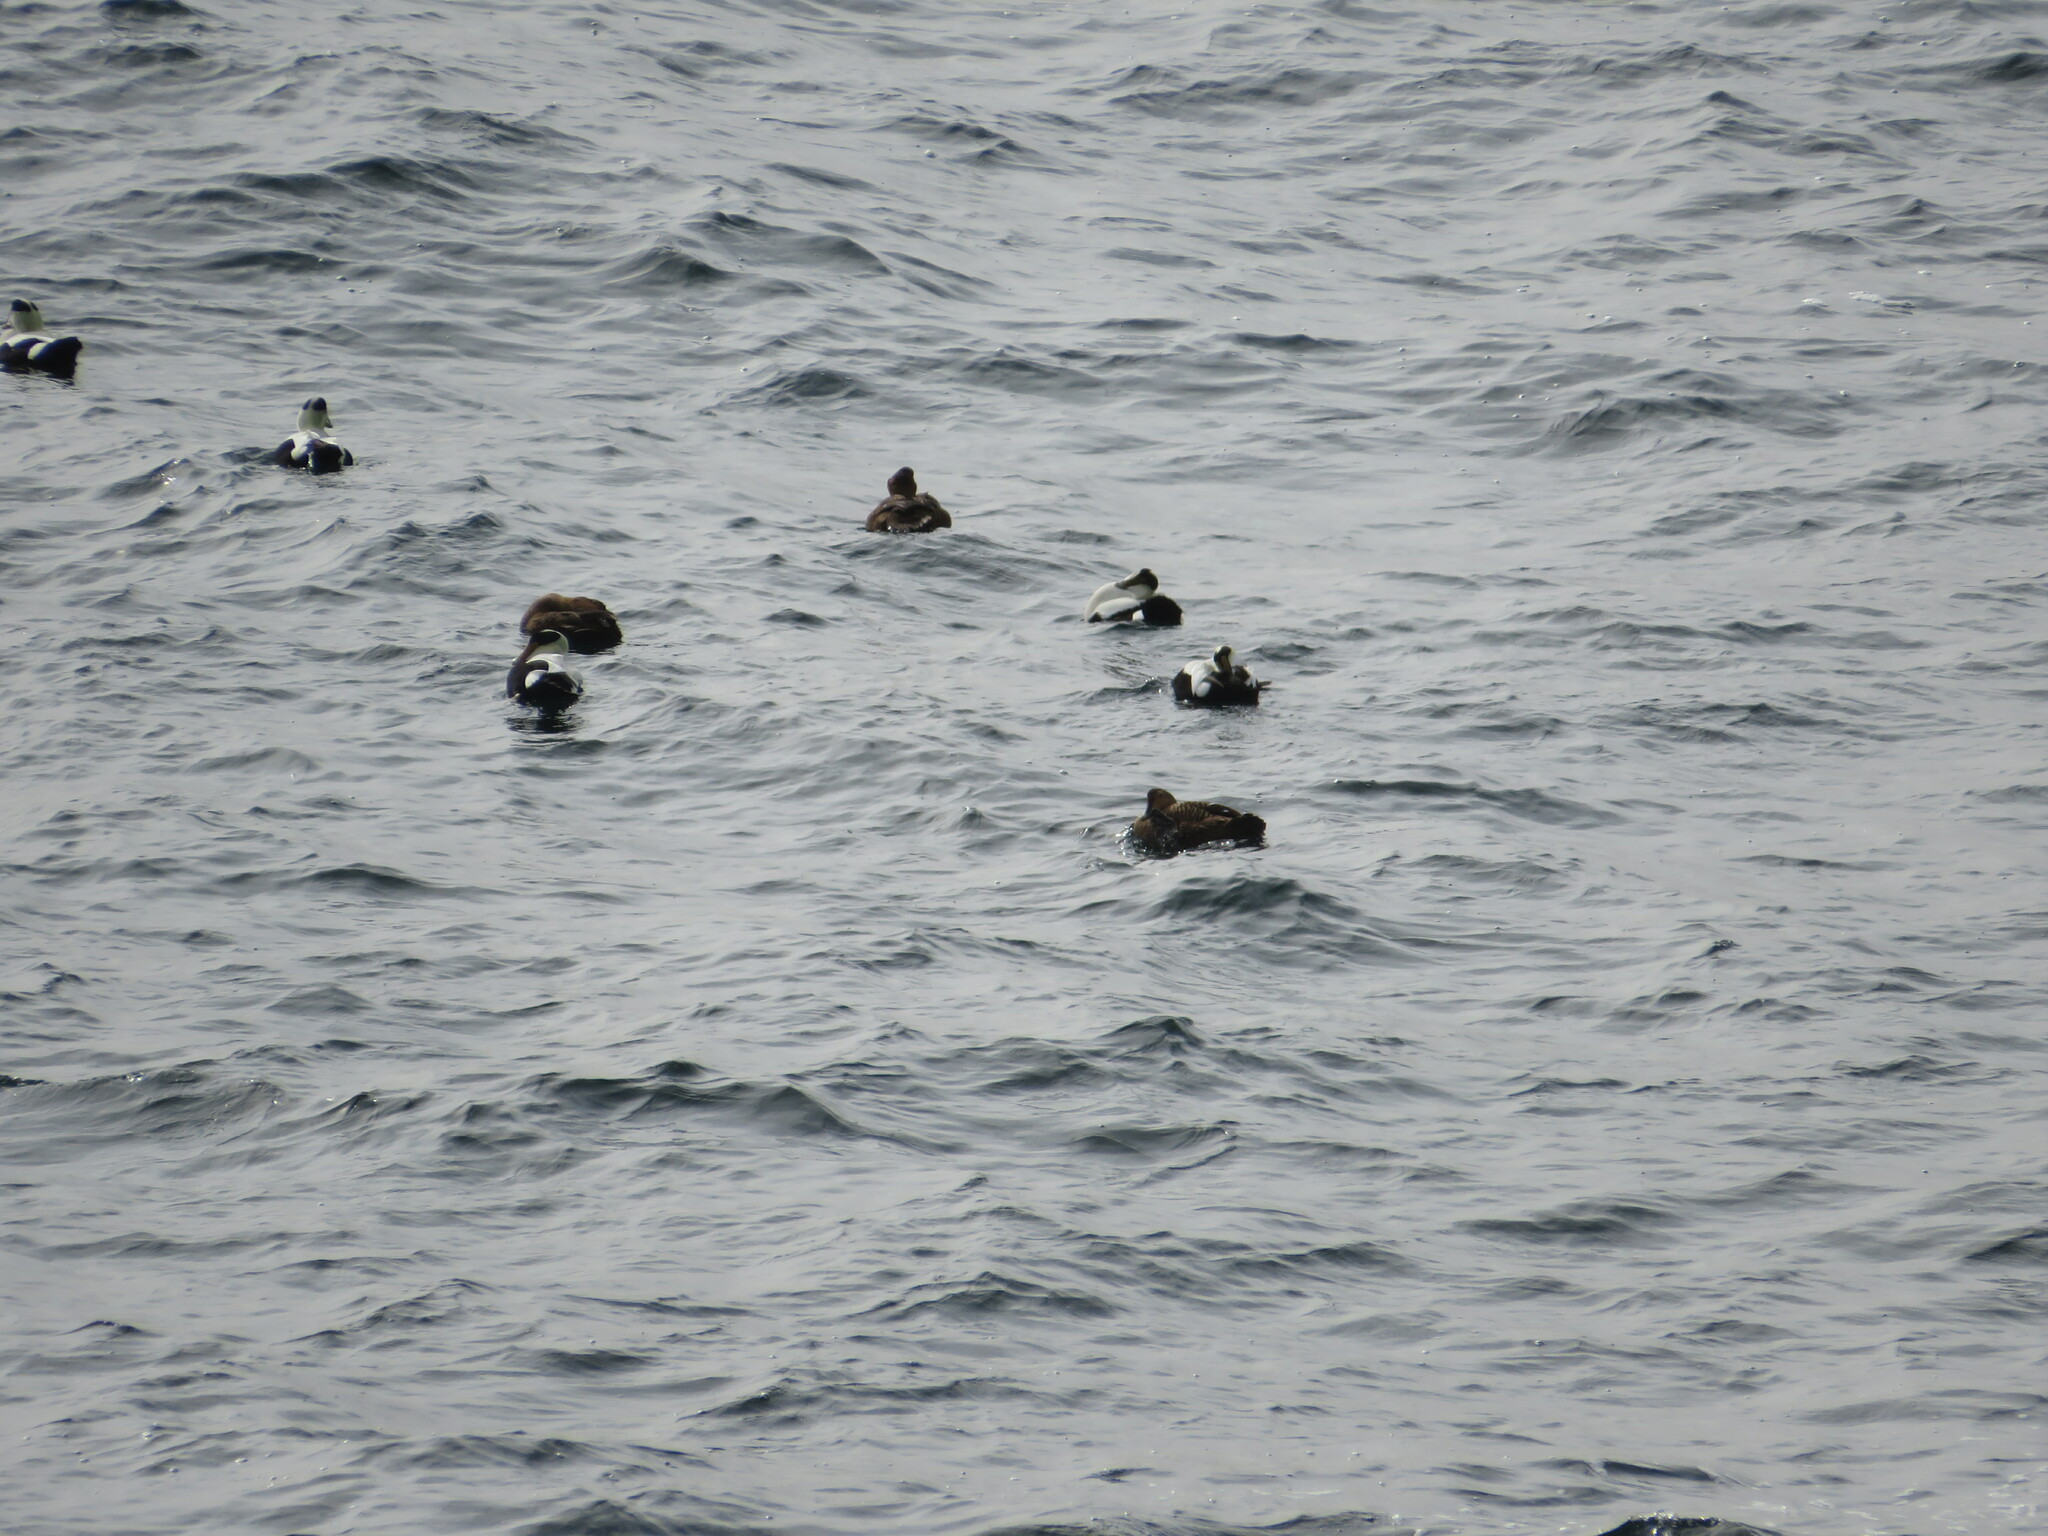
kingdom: Animalia
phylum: Chordata
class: Aves
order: Anseriformes
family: Anatidae
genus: Somateria
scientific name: Somateria mollissima
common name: Common eider
